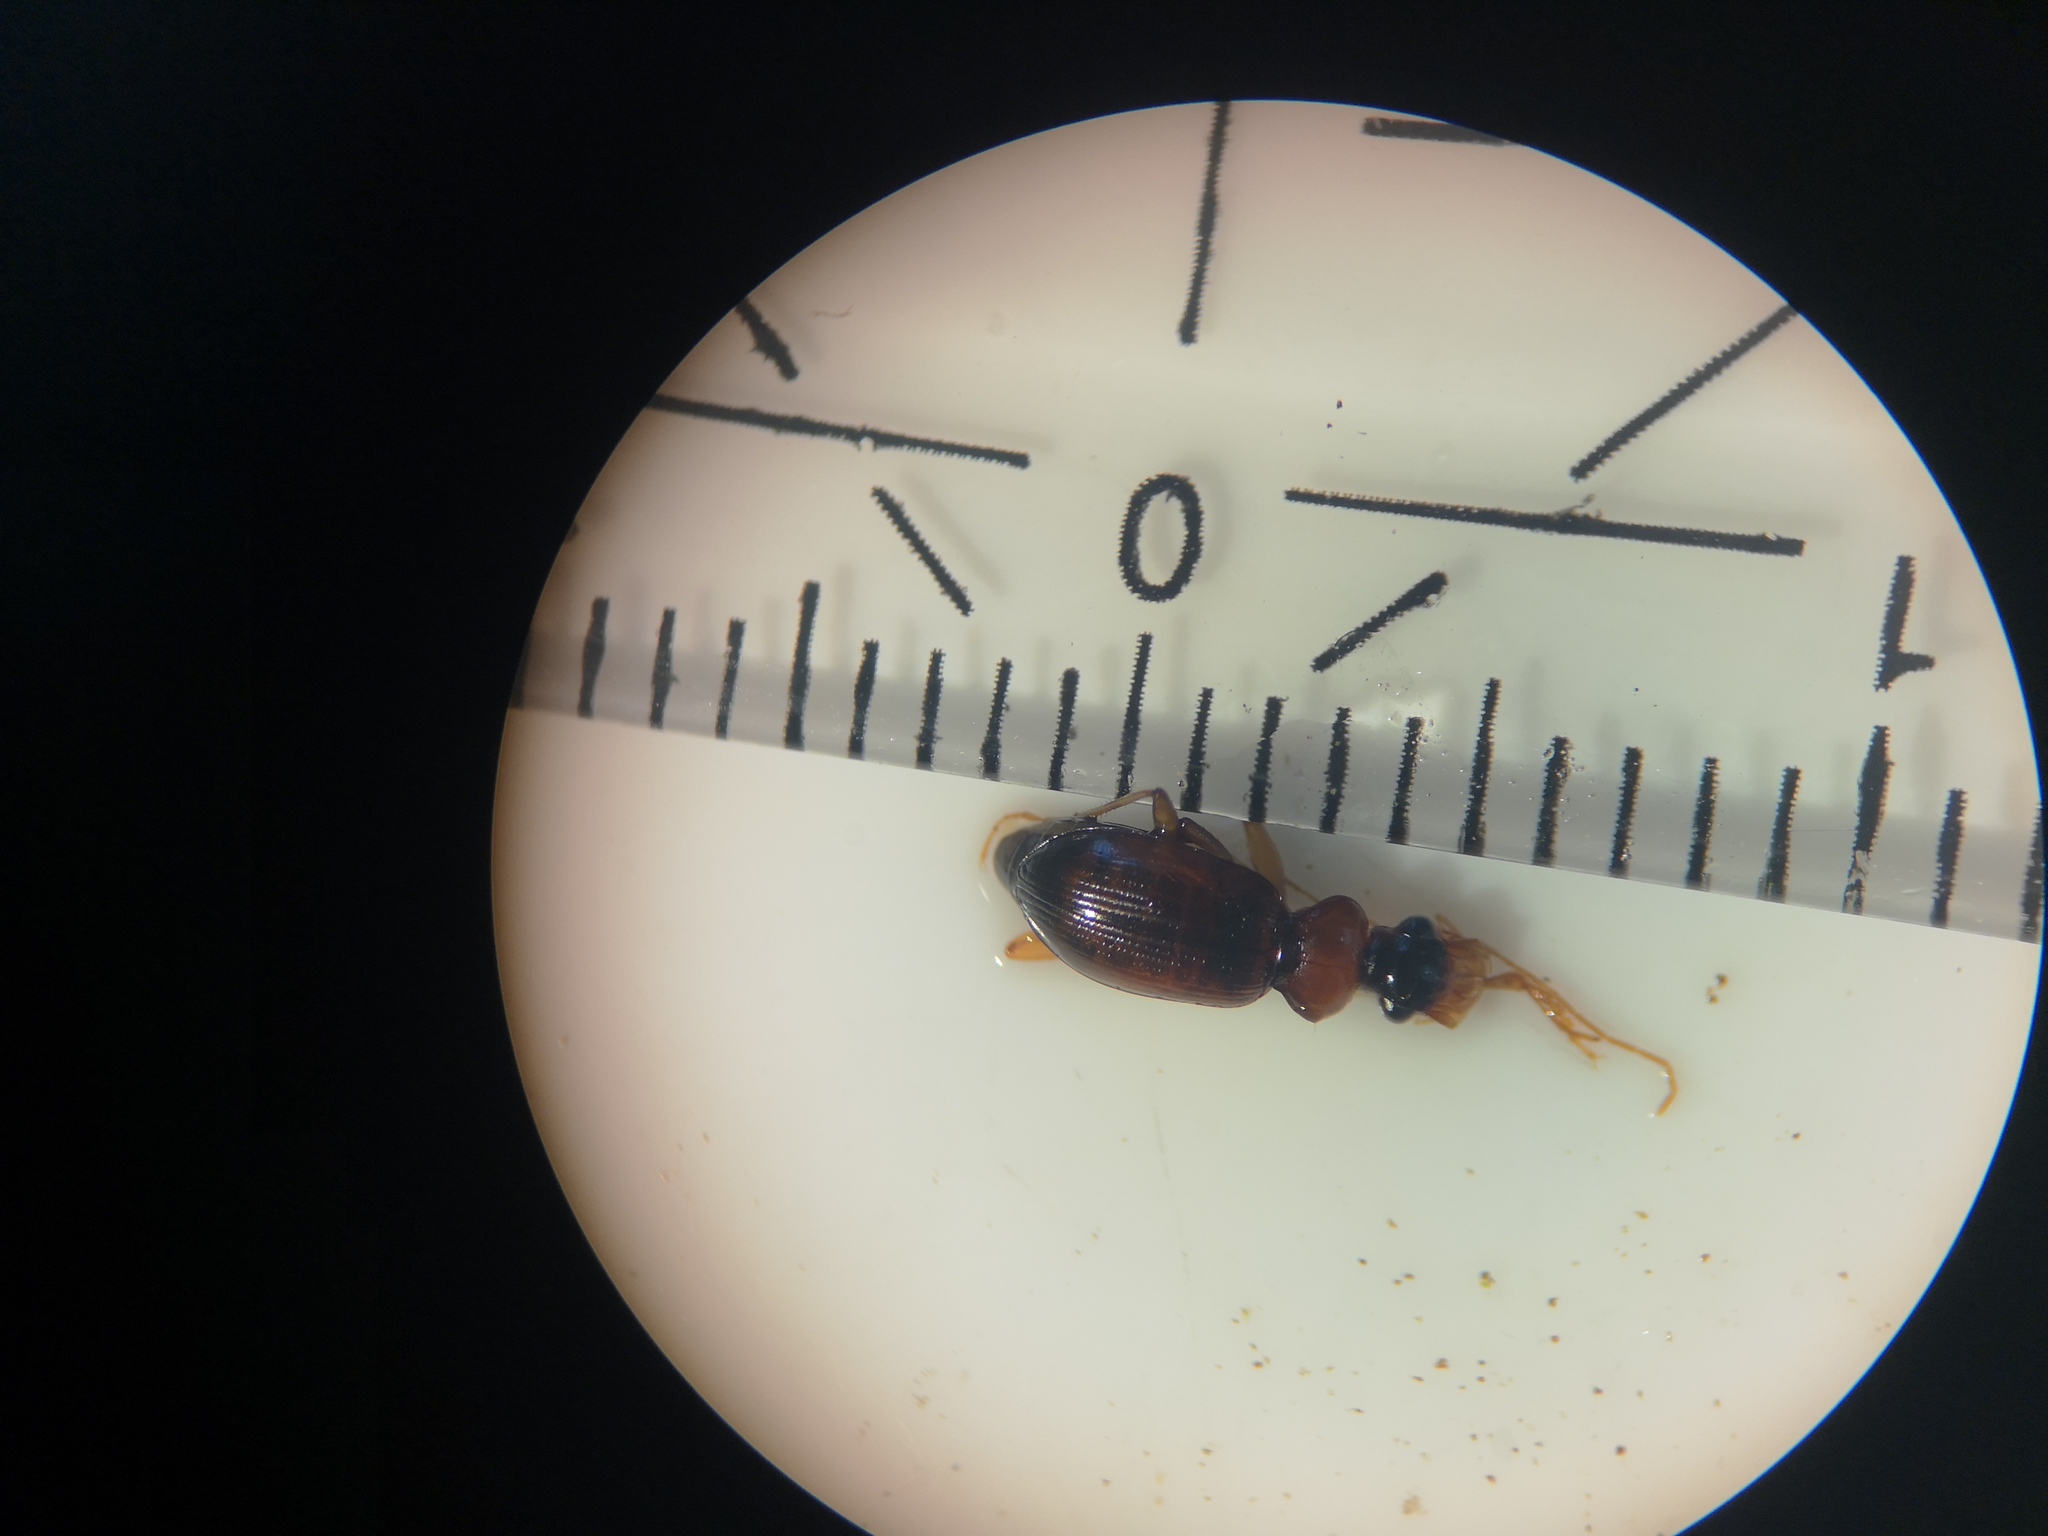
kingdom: Animalia
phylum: Arthropoda
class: Insecta
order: Coleoptera
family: Carabidae
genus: Leistus
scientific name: Leistus terminatus
